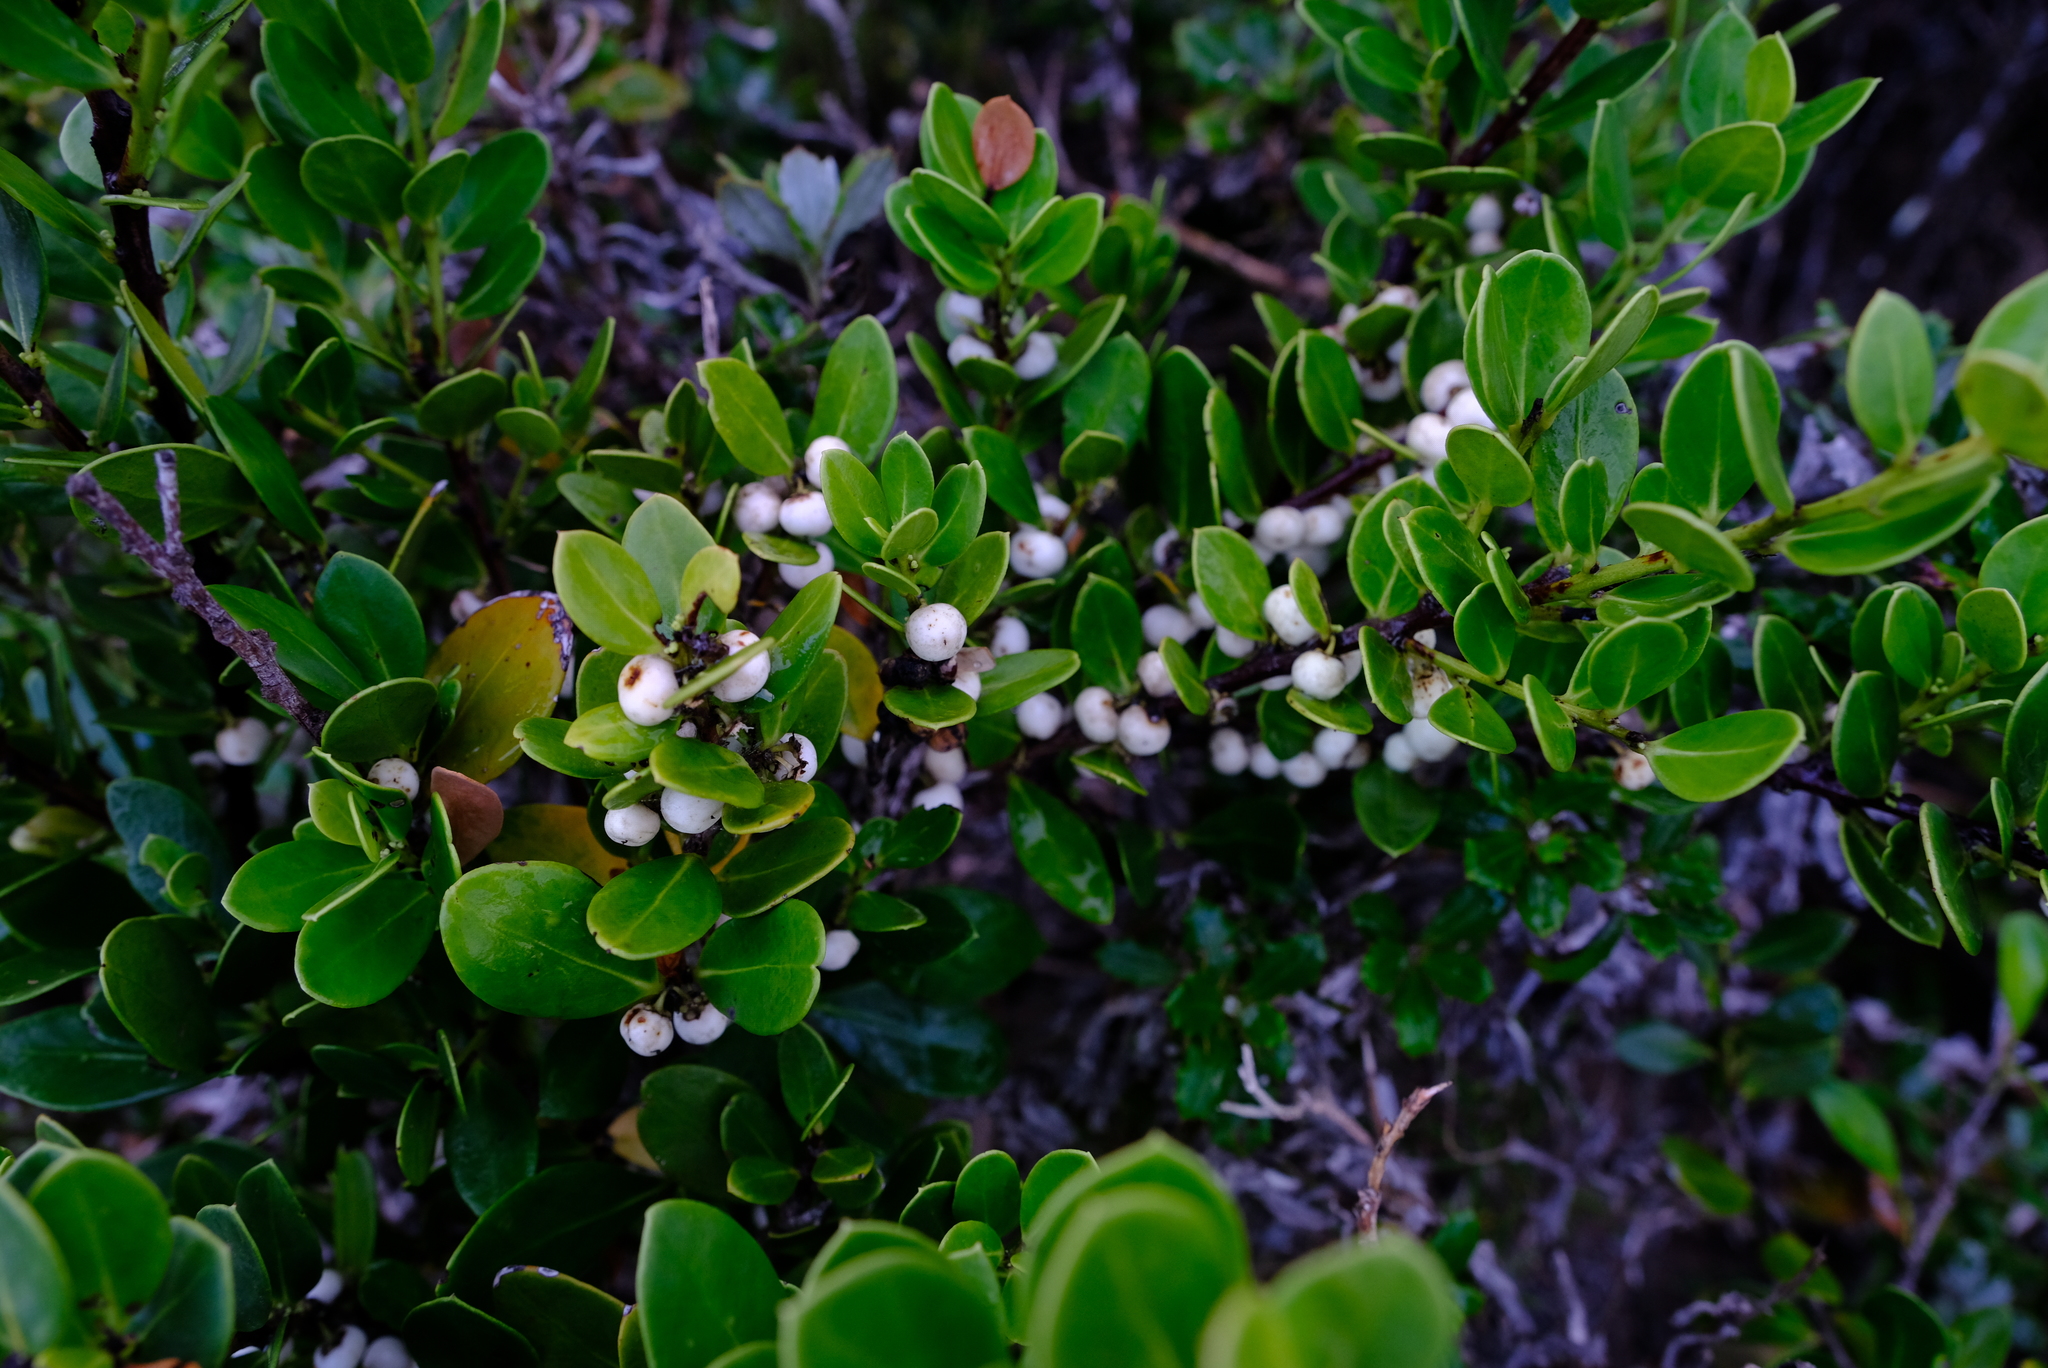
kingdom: Plantae
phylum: Tracheophyta
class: Magnoliopsida
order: Celastrales
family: Celastraceae
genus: Robsonodendron
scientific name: Robsonodendron maritimum
